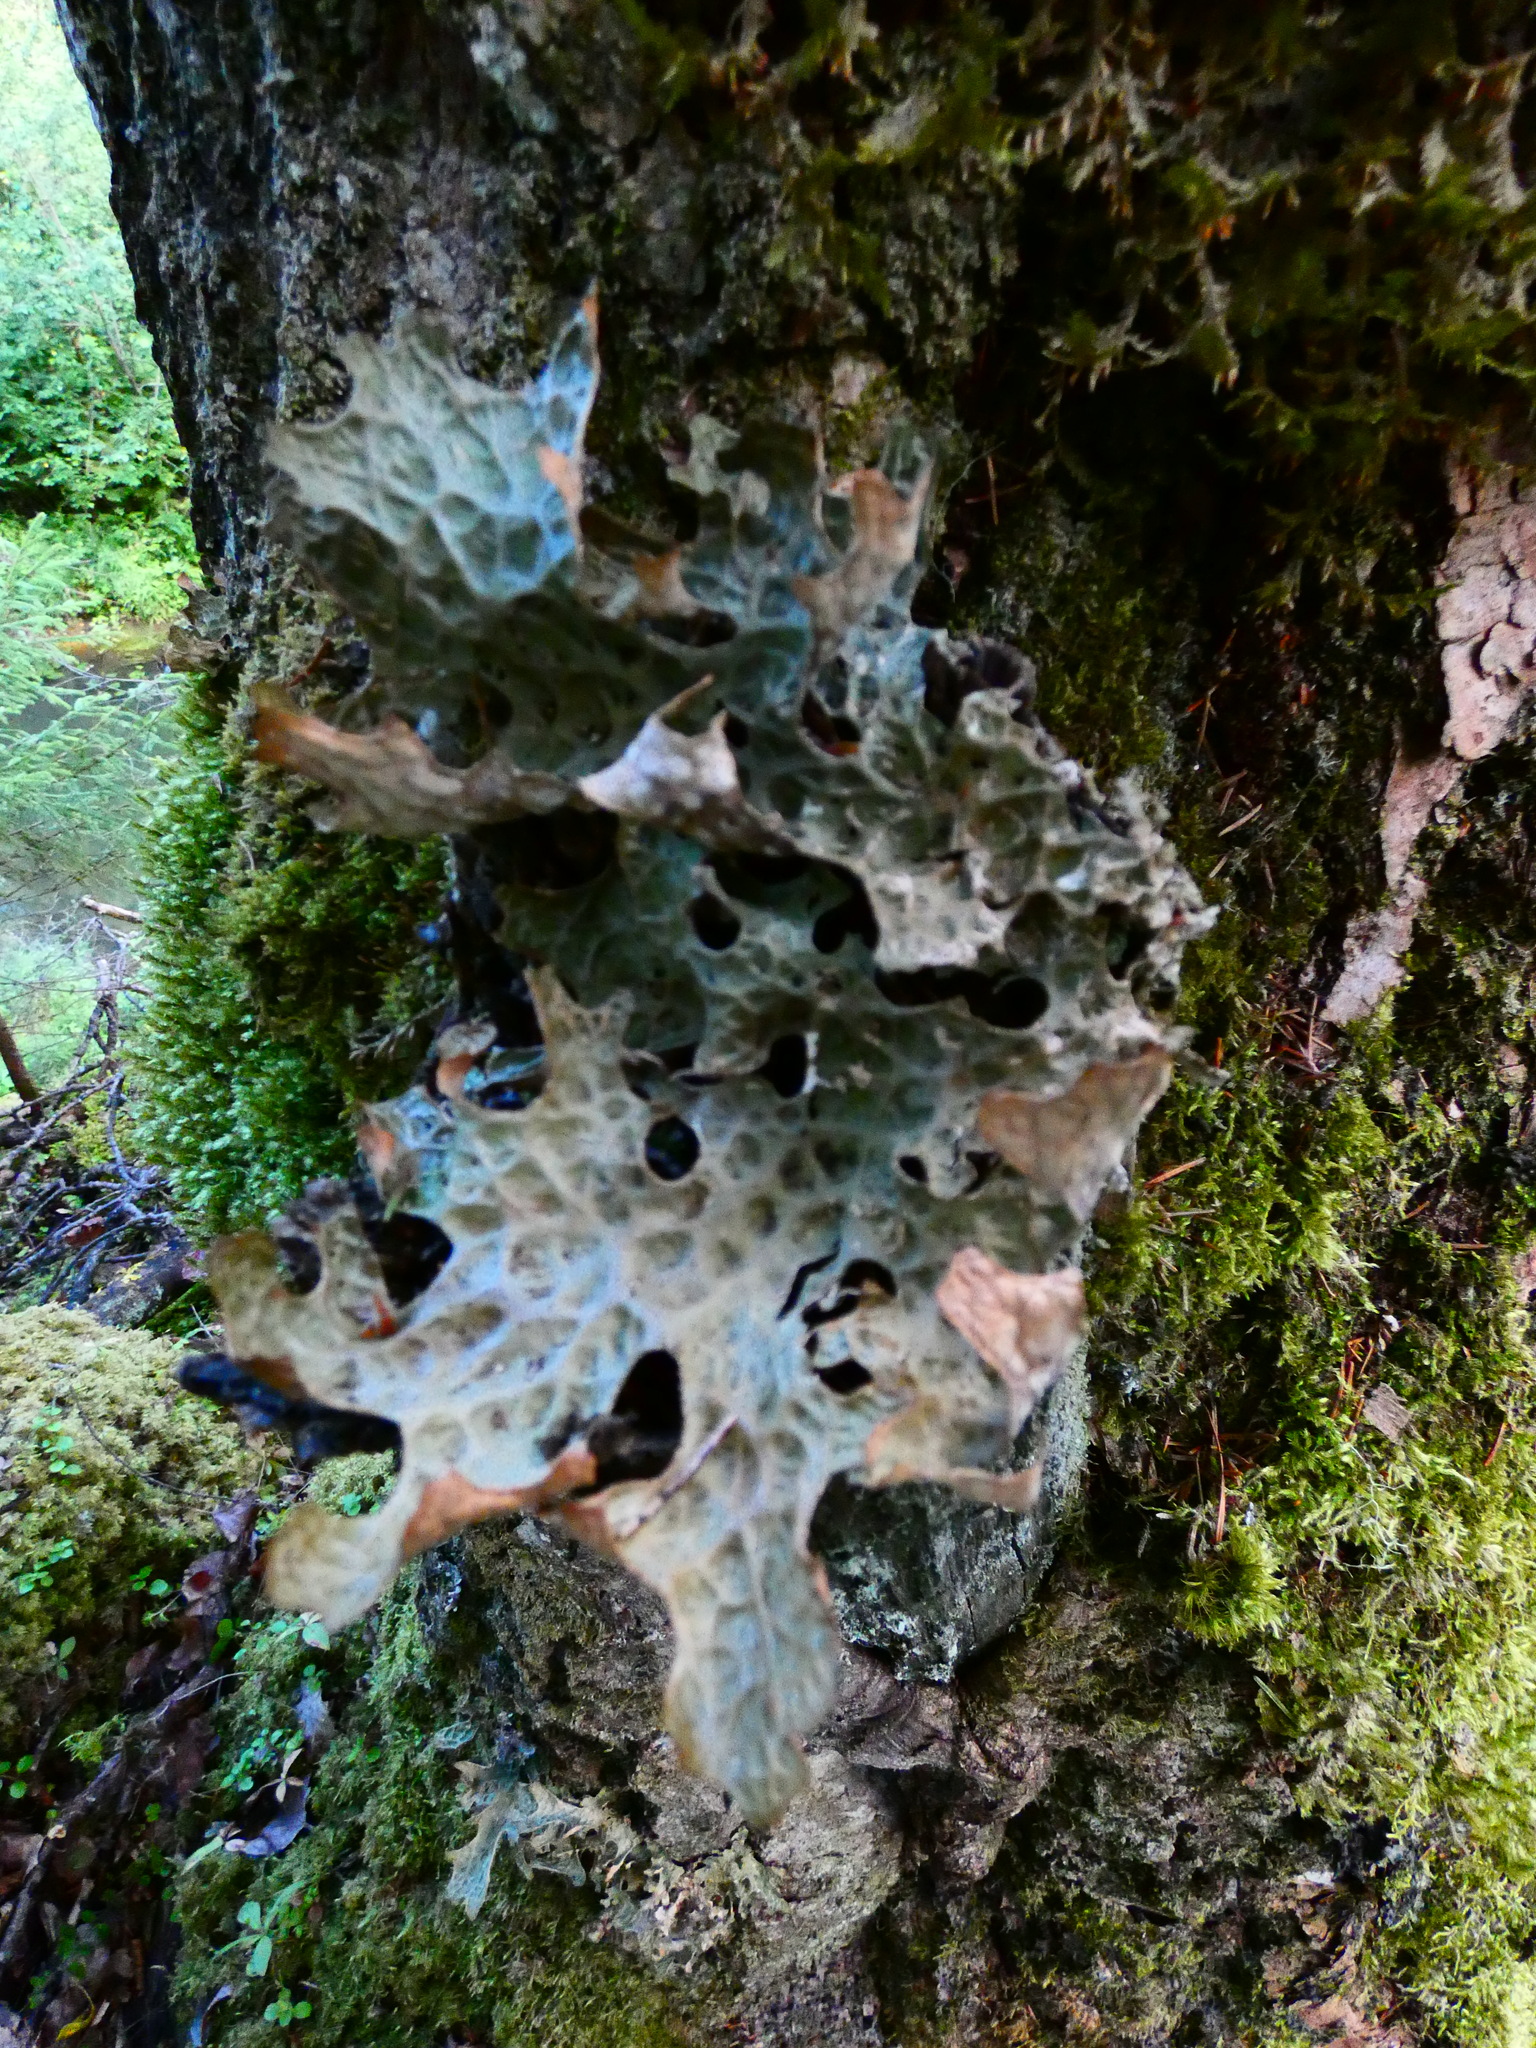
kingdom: Fungi
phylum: Ascomycota
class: Lecanoromycetes
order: Peltigerales
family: Lobariaceae
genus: Lobaria
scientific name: Lobaria pulmonaria
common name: Lungwort
